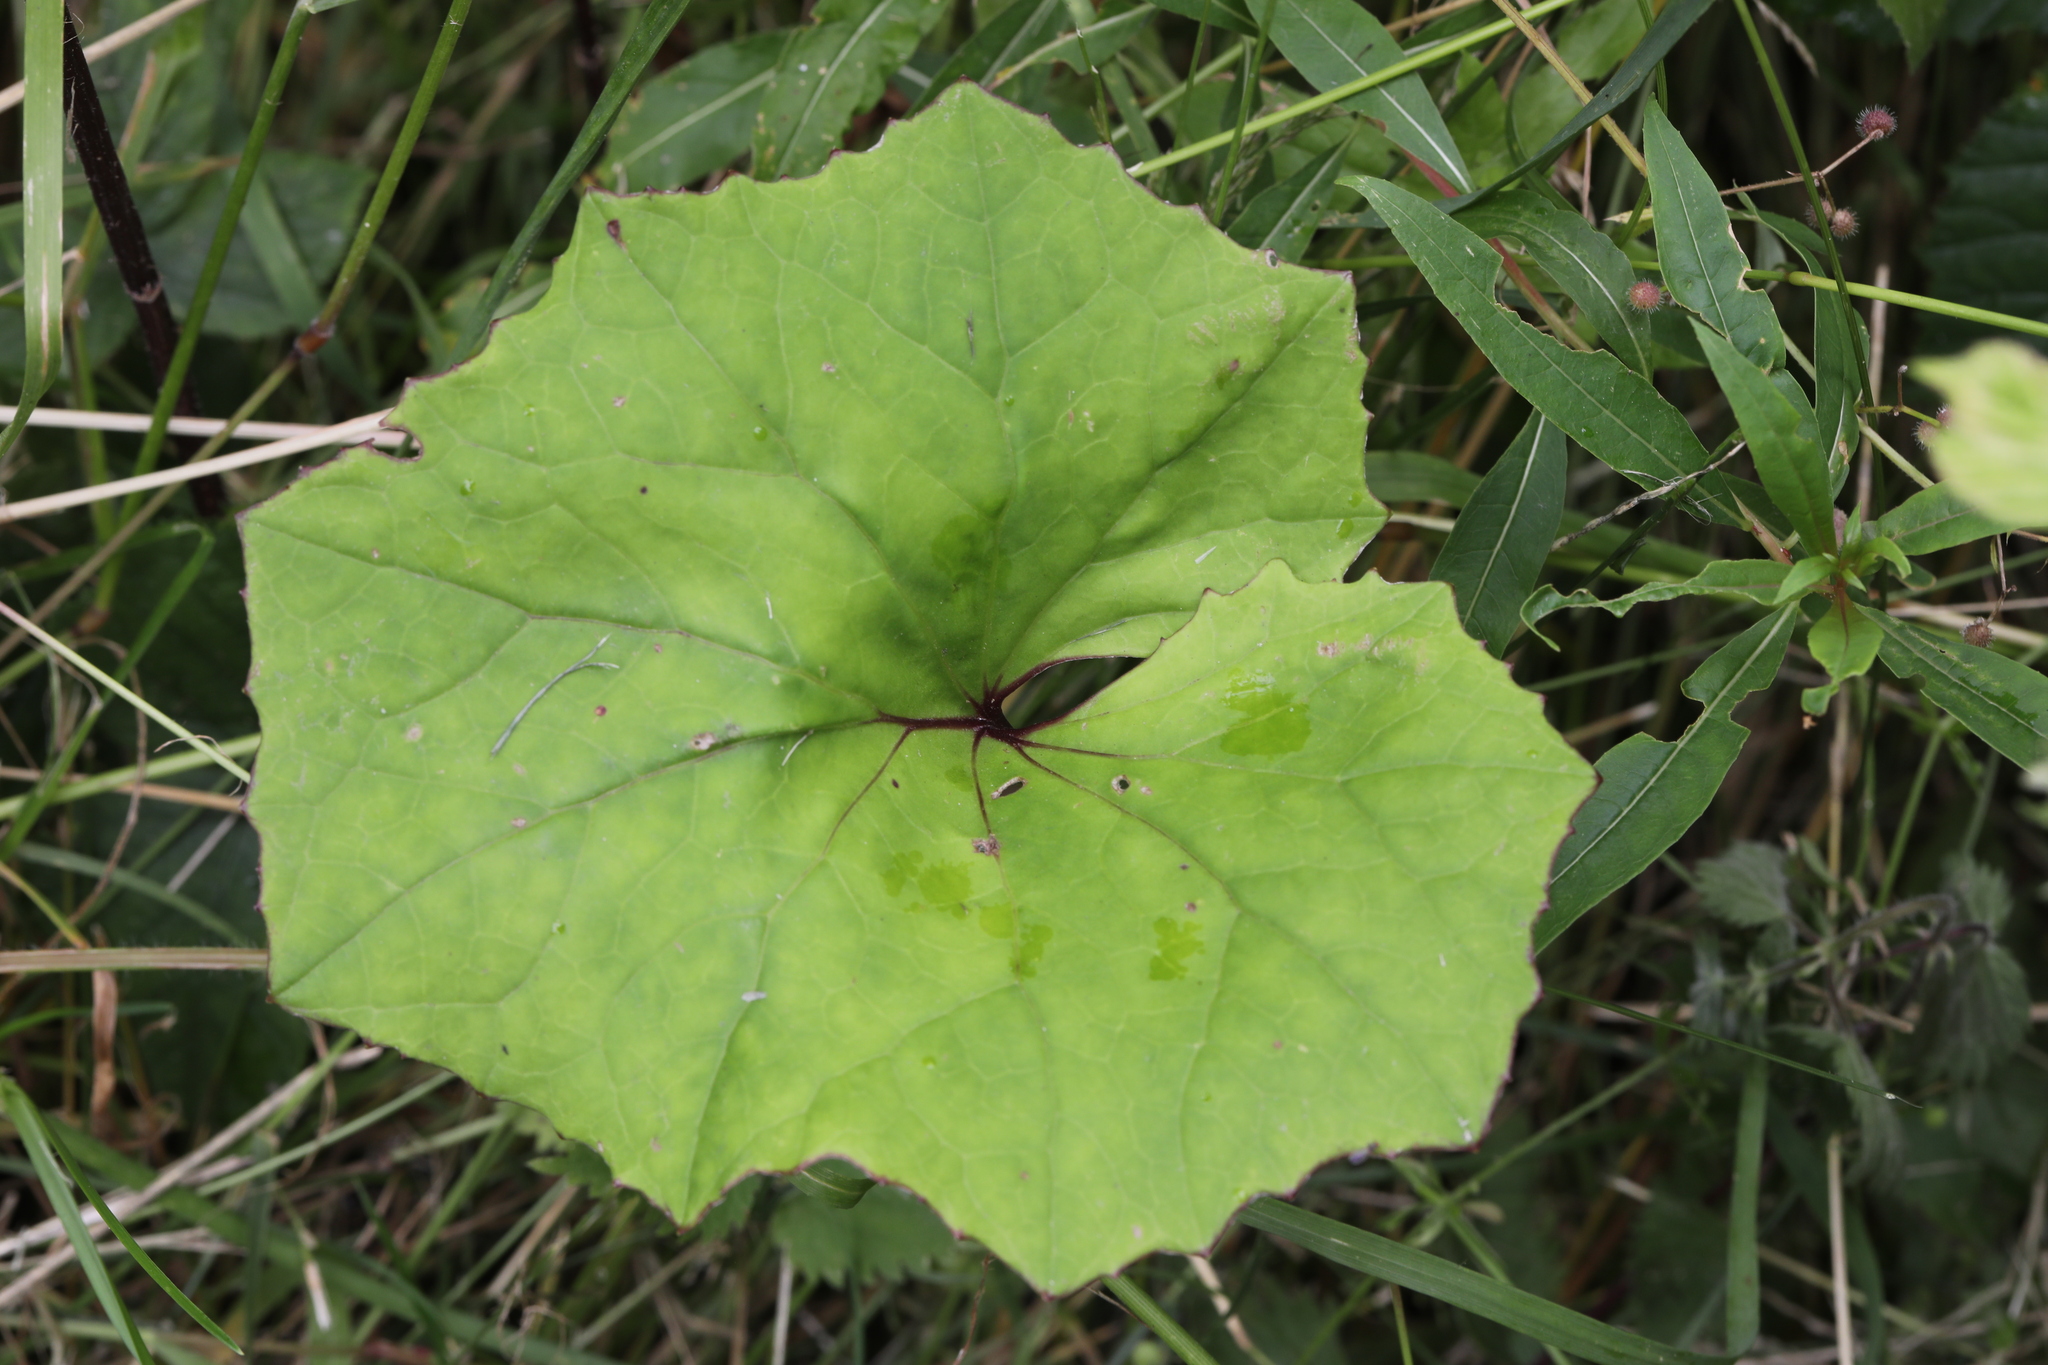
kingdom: Plantae
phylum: Tracheophyta
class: Magnoliopsida
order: Asterales
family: Asteraceae
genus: Tussilago
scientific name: Tussilago farfara
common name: Coltsfoot
